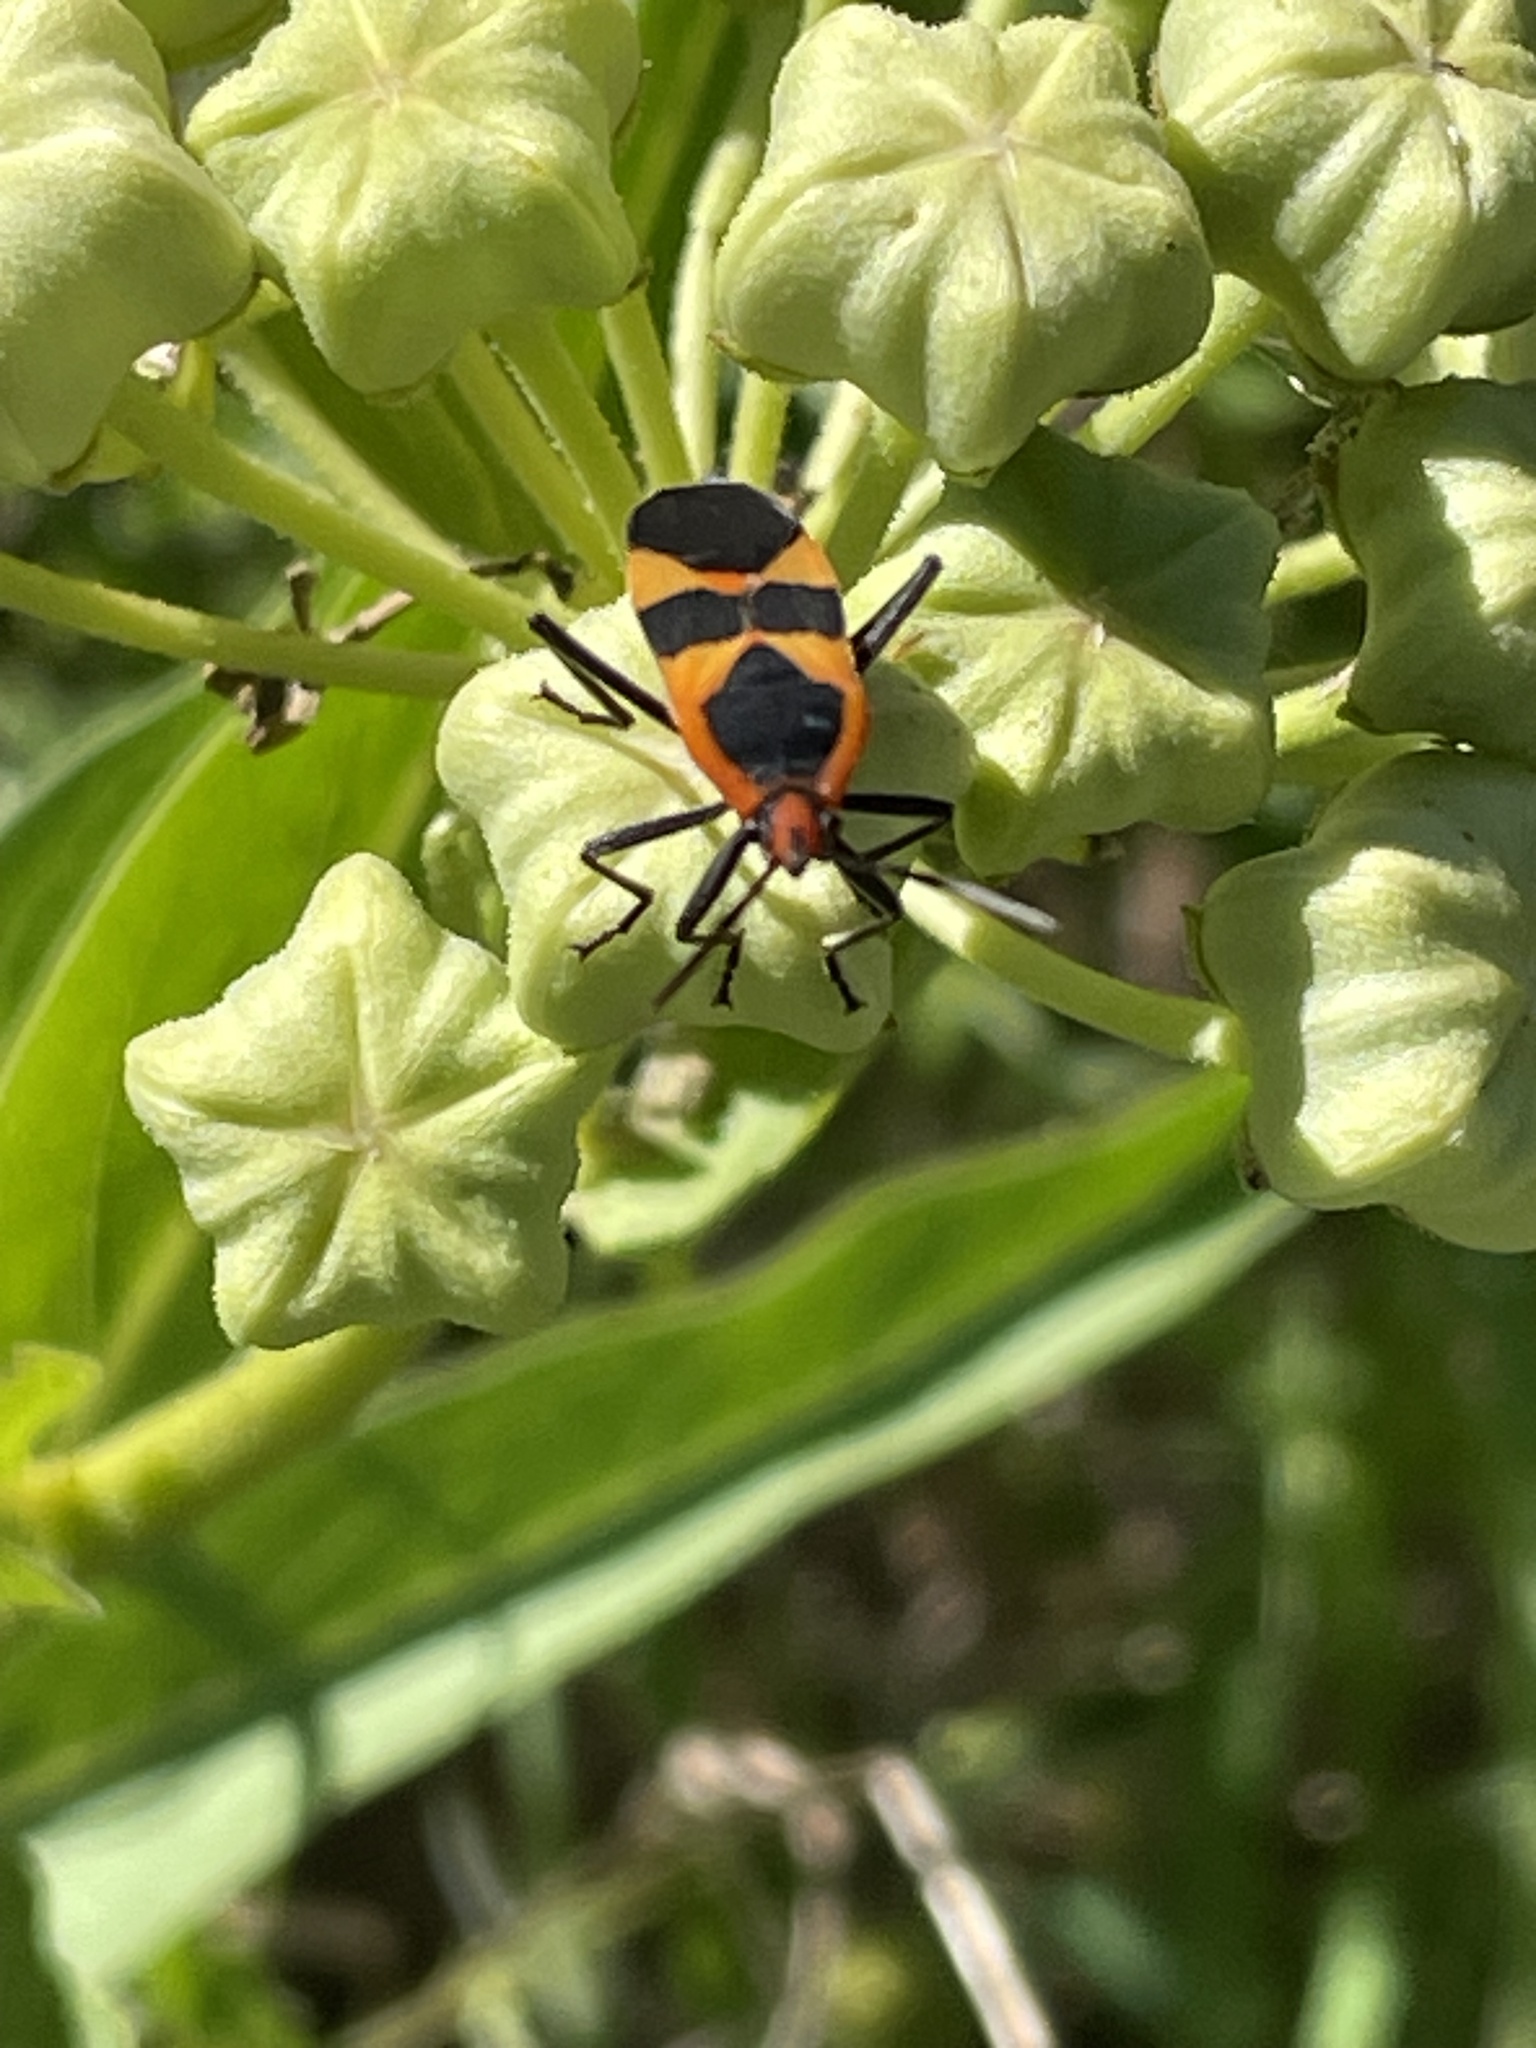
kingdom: Animalia
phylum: Arthropoda
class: Insecta
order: Hemiptera
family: Lygaeidae
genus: Oncopeltus
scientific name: Oncopeltus fasciatus
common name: Large milkweed bug
